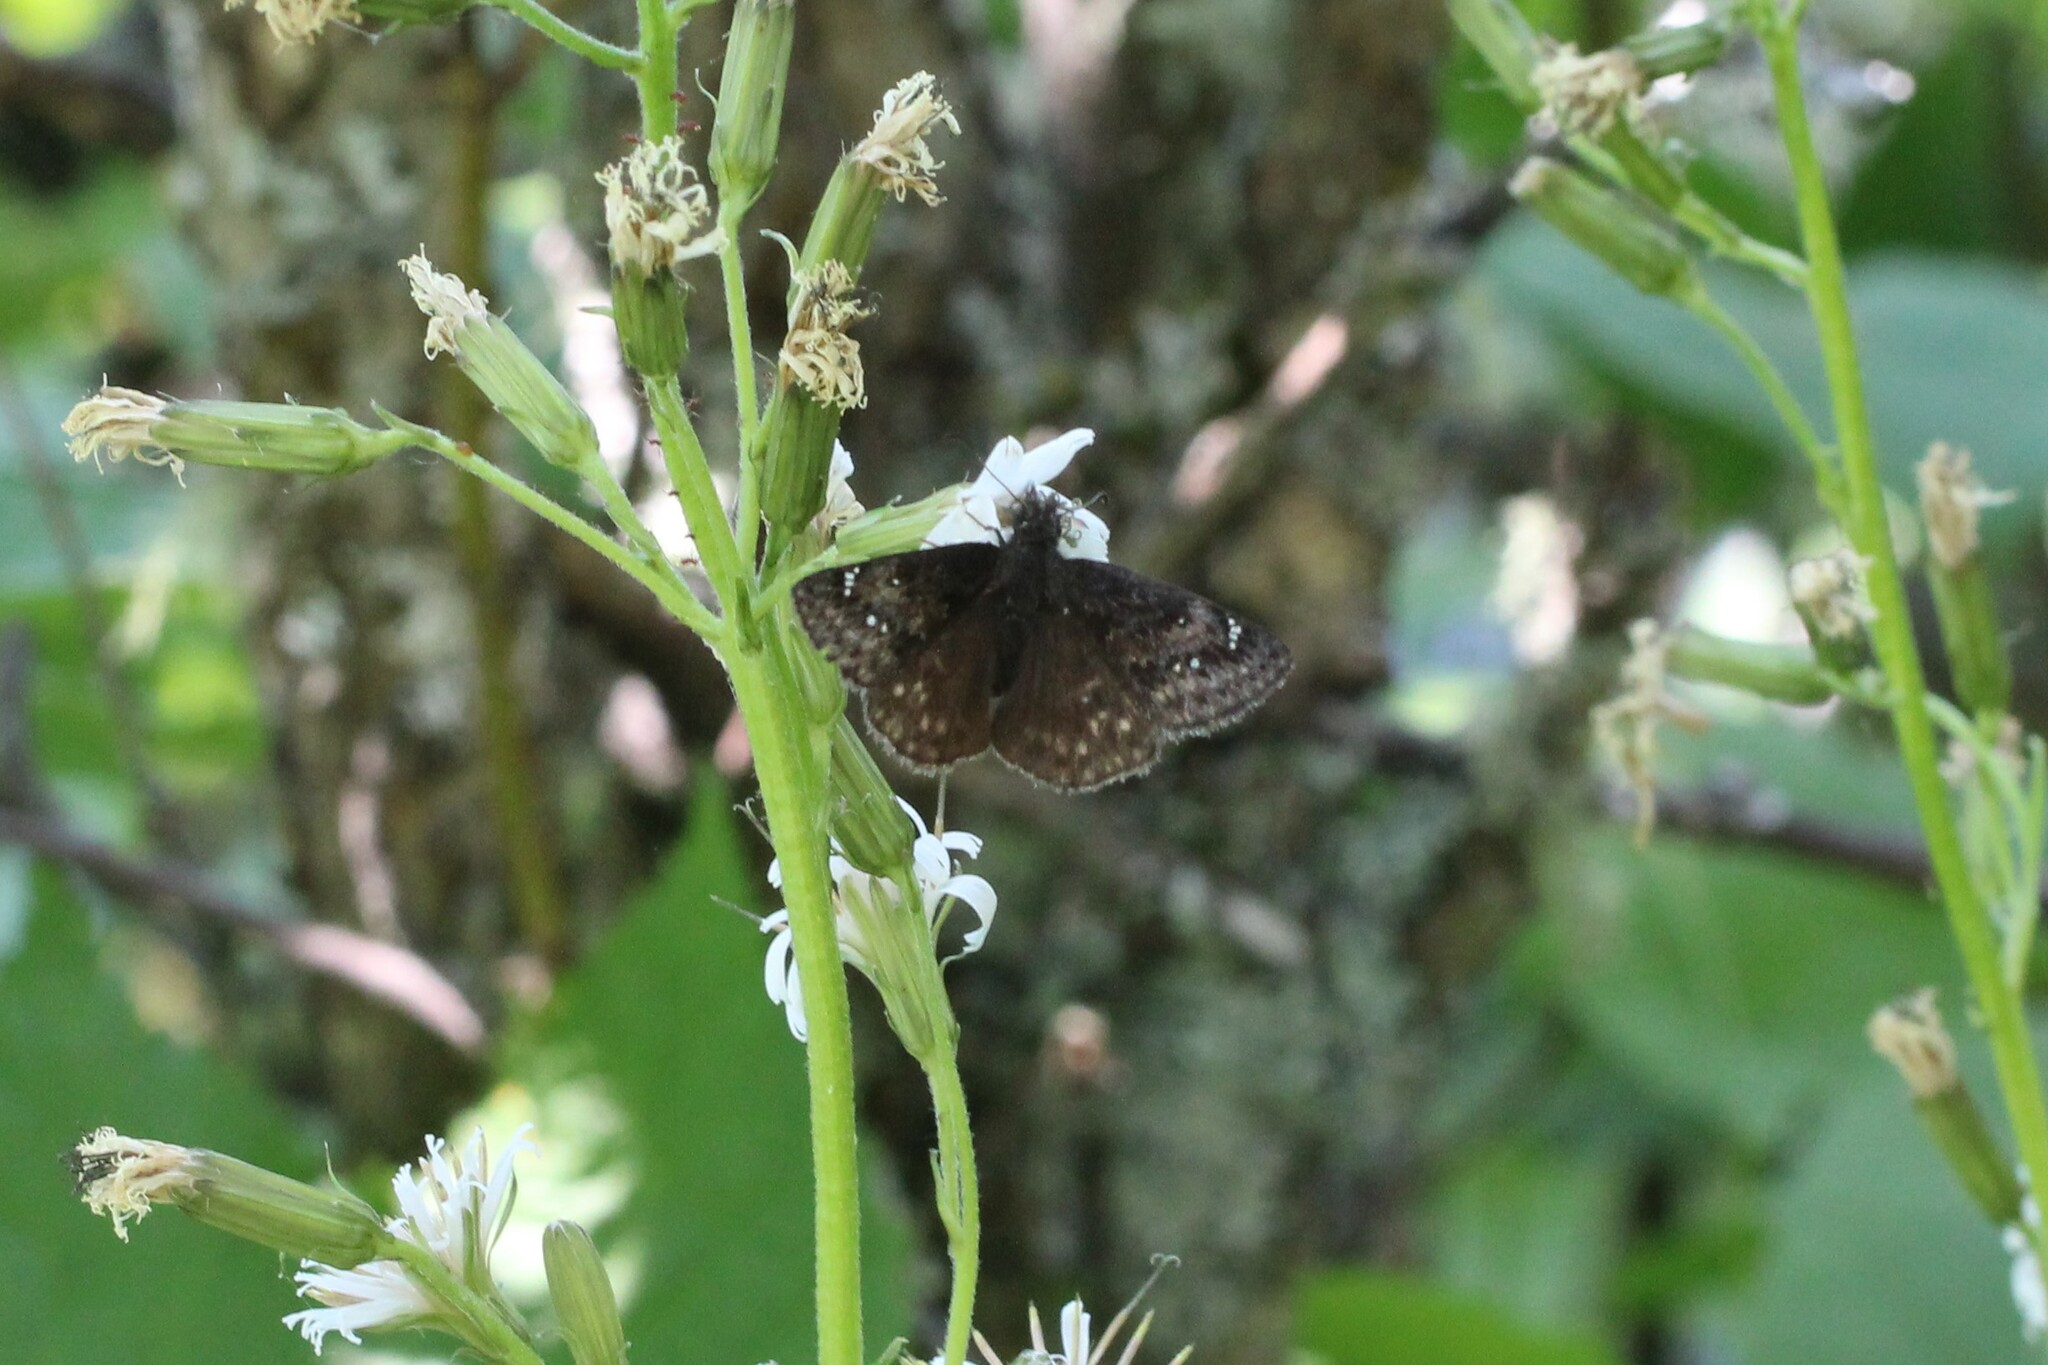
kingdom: Animalia
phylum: Arthropoda
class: Insecta
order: Lepidoptera
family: Hesperiidae
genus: Erynnis
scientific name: Erynnis persius
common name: Persius duskywing
